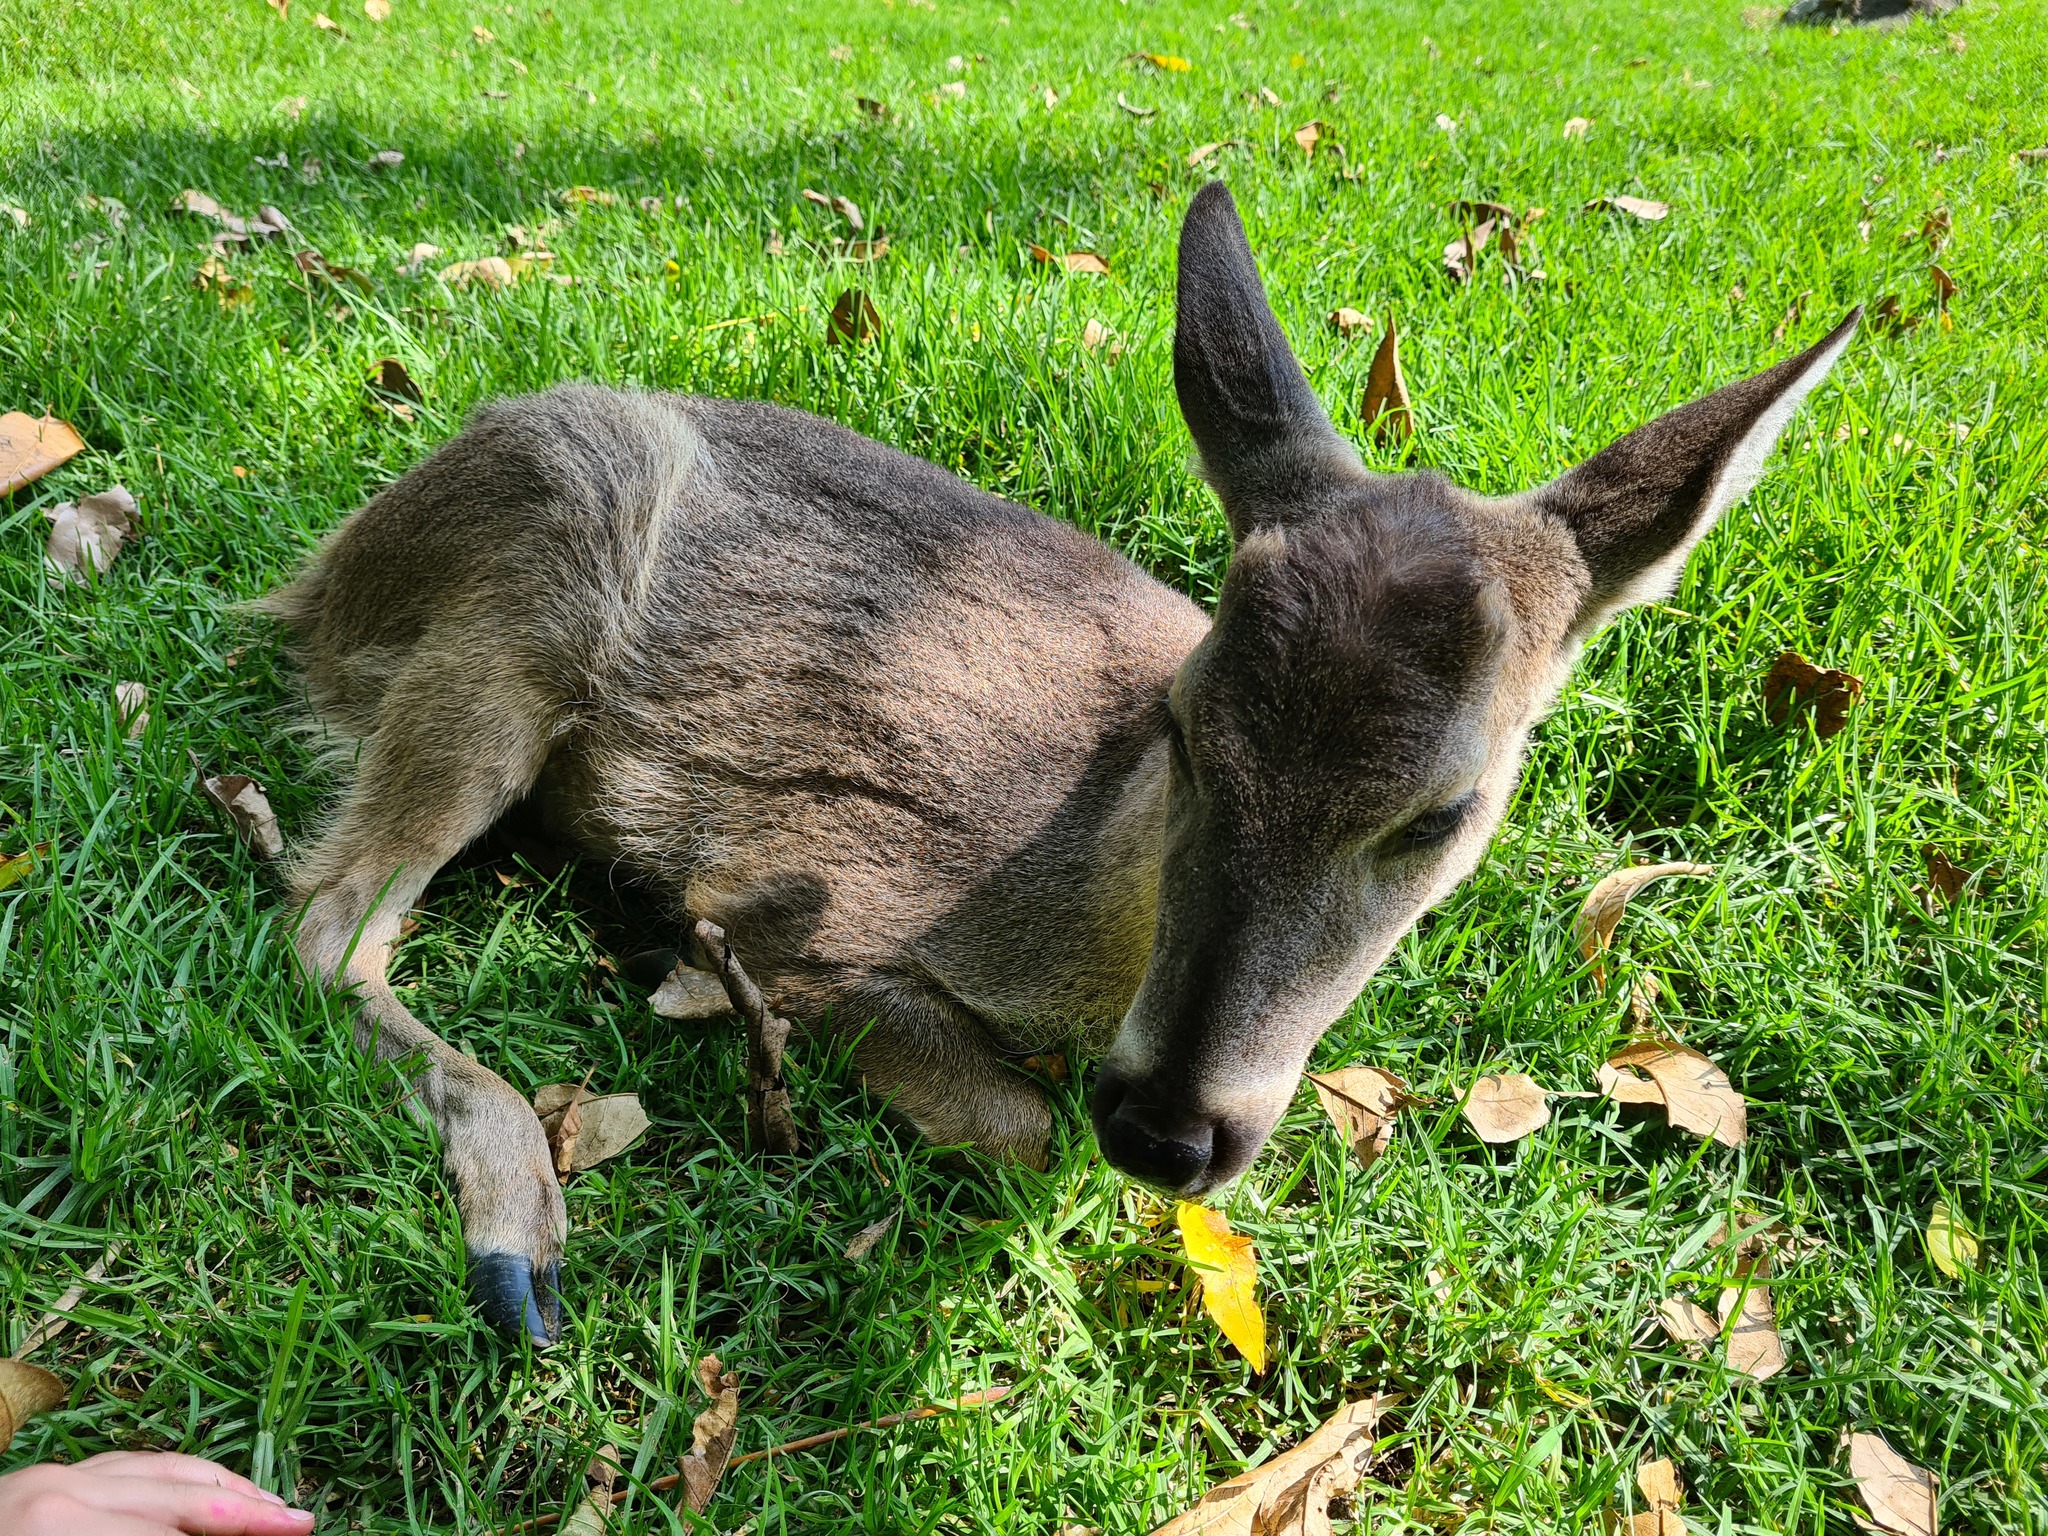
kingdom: Animalia
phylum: Chordata
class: Mammalia
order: Artiodactyla
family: Cervidae
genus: Odocoileus
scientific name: Odocoileus virginianus
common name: White-tailed deer
